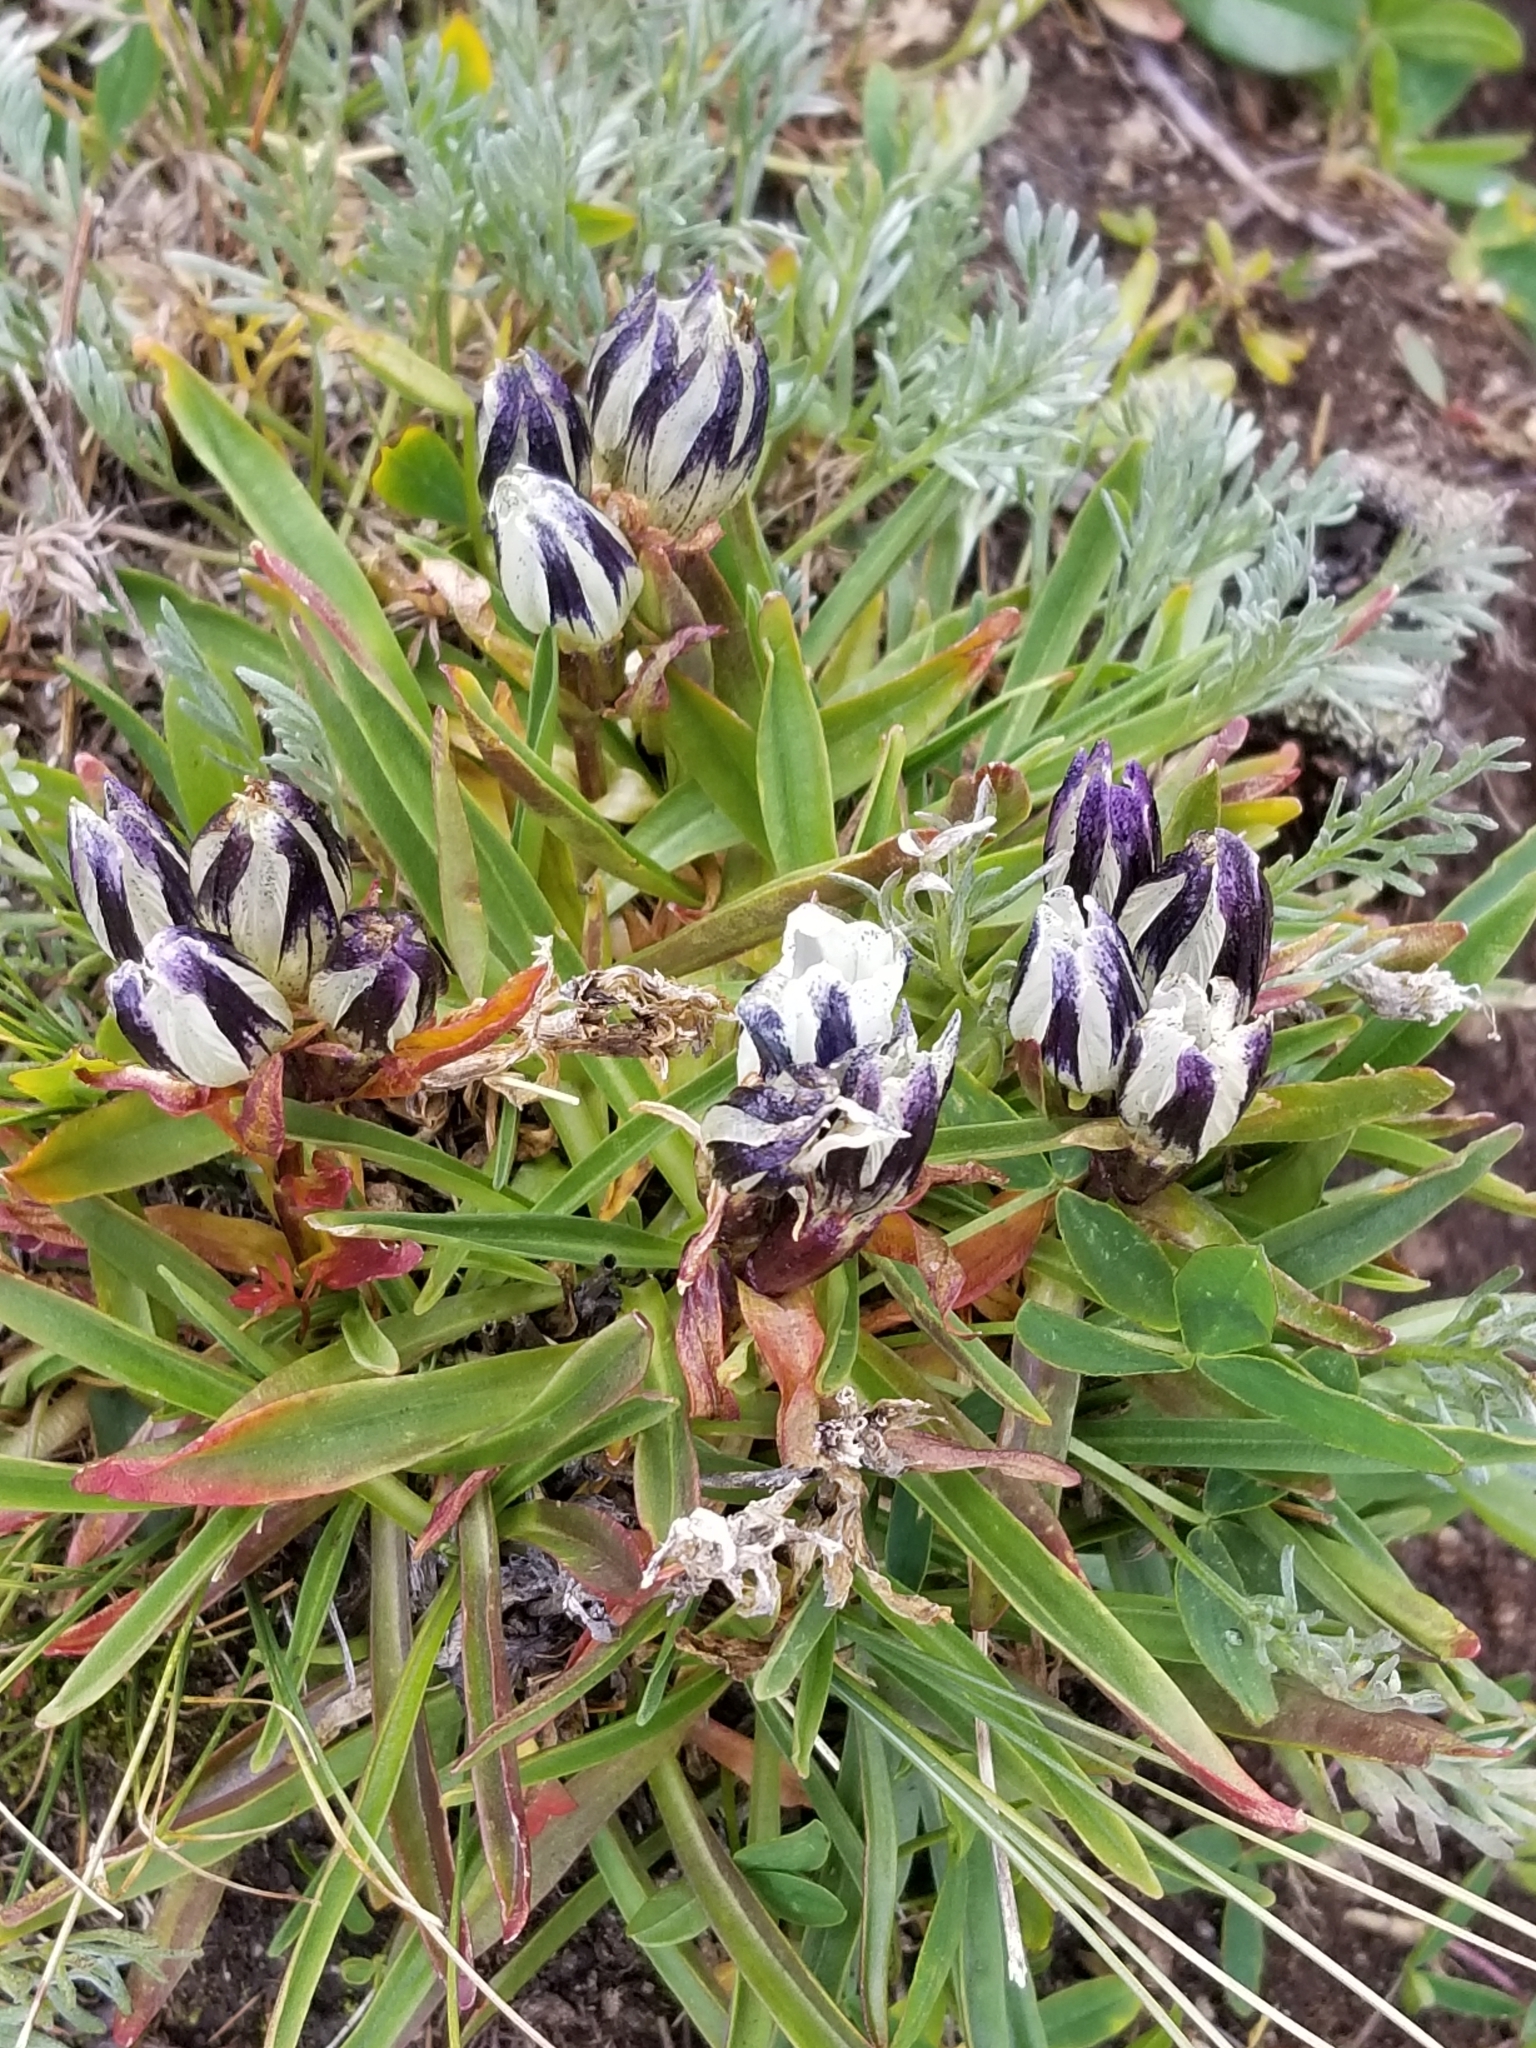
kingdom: Plantae
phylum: Tracheophyta
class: Magnoliopsida
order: Gentianales
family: Gentianaceae
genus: Gentiana
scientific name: Gentiana algida
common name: Arctic gentian
